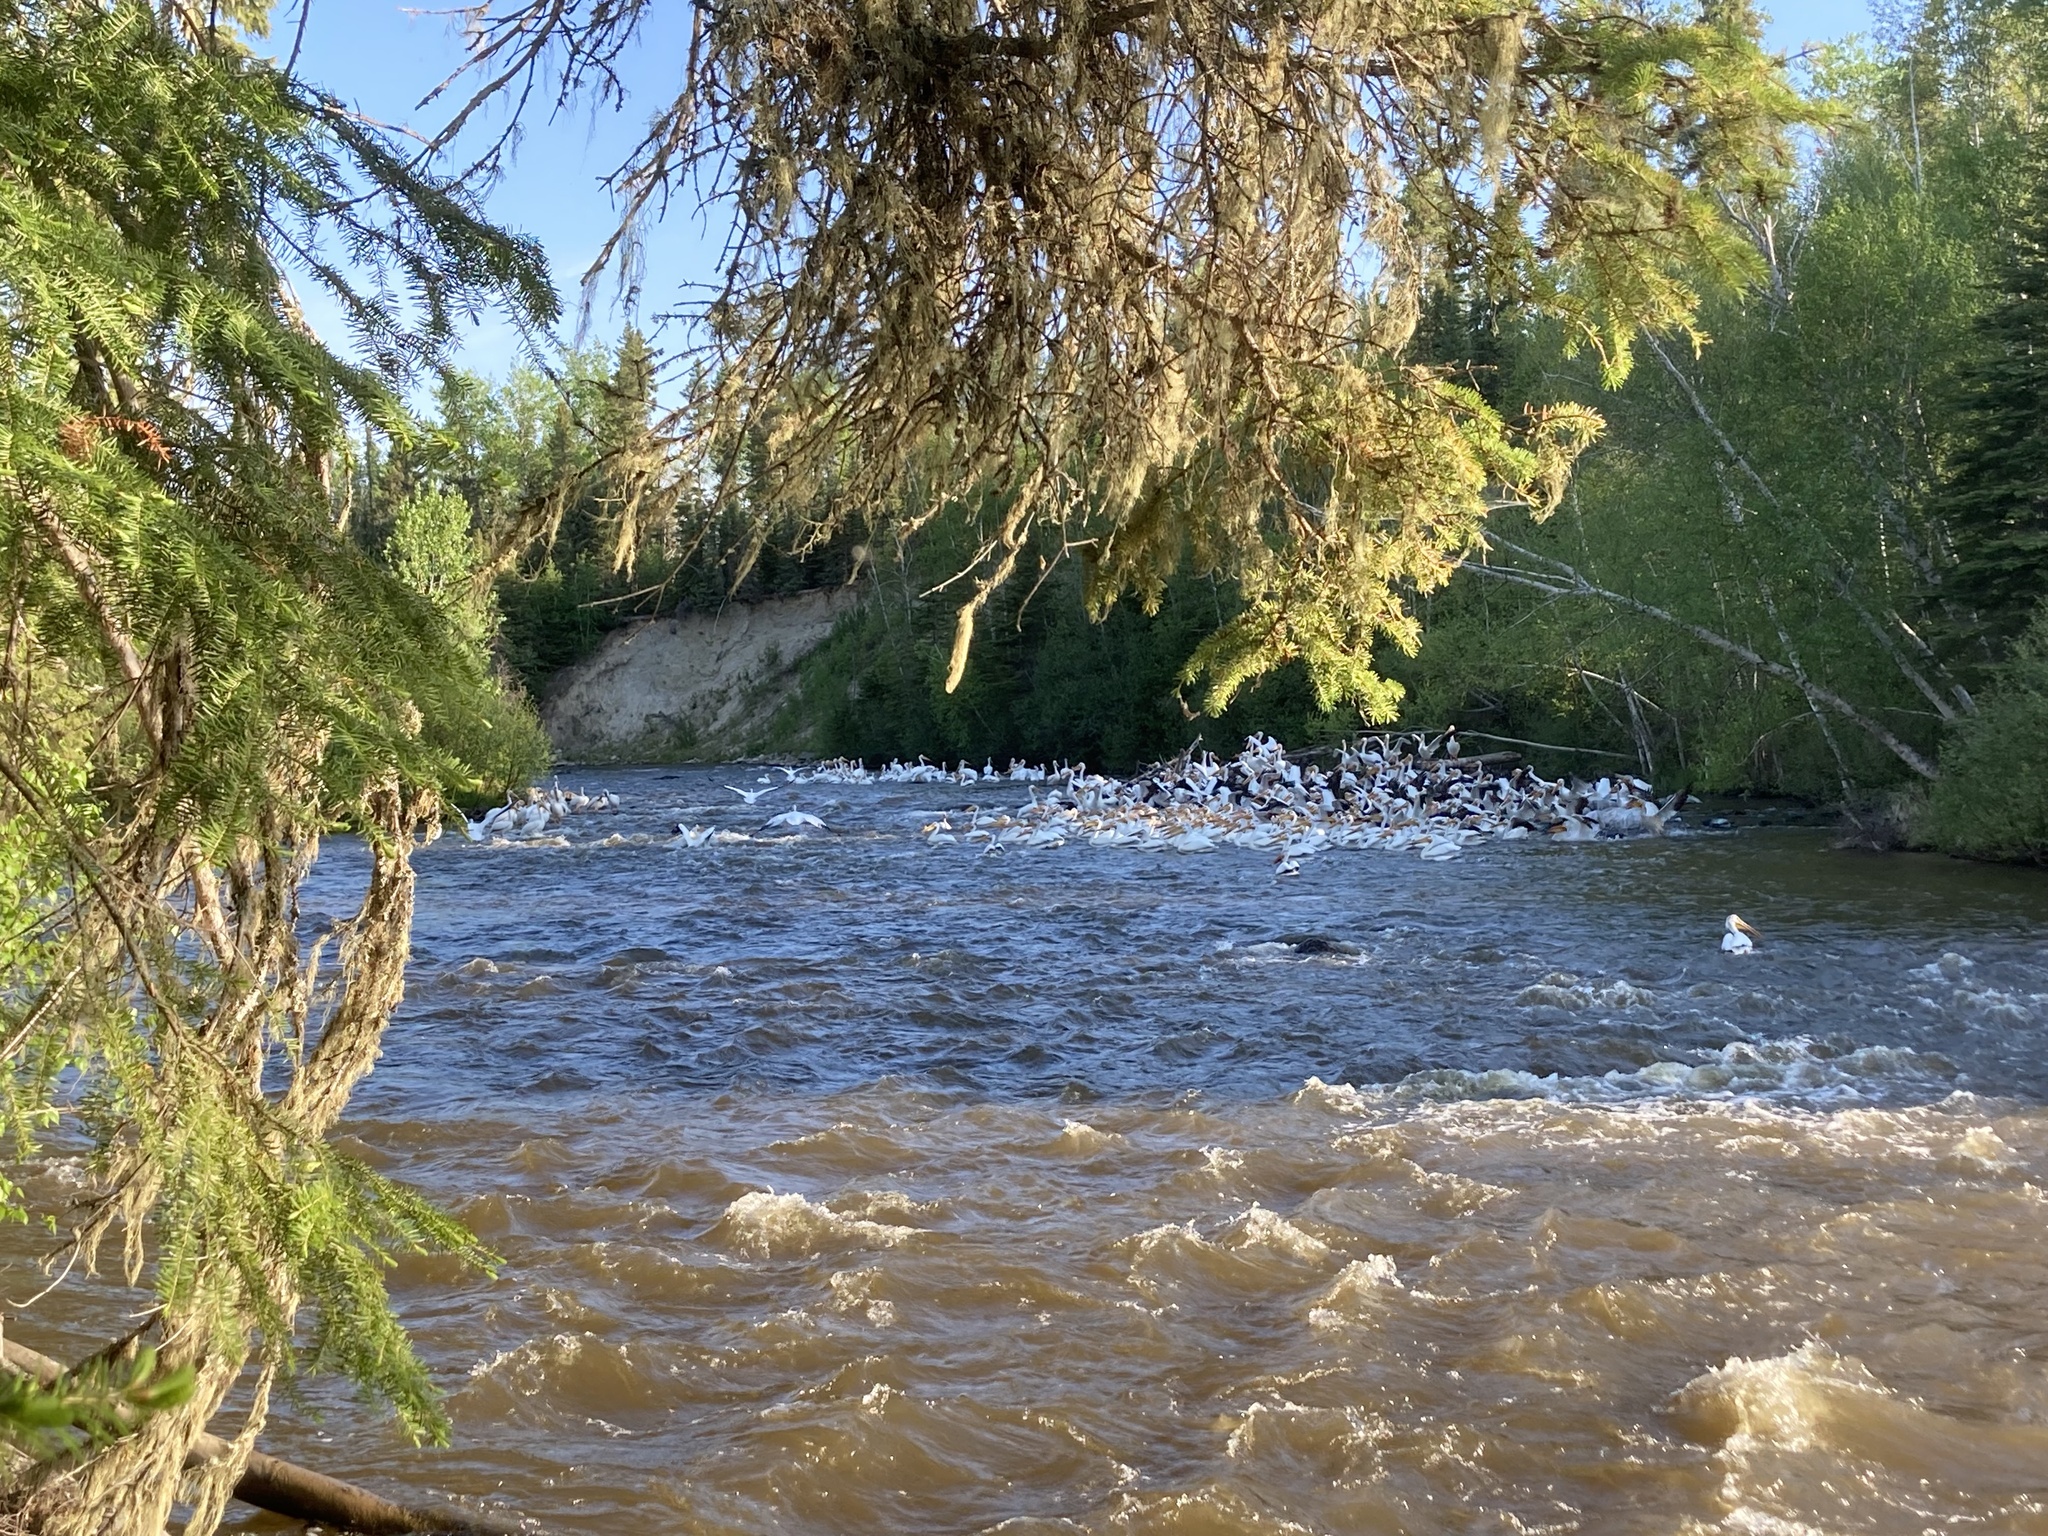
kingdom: Animalia
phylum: Chordata
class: Aves
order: Pelecaniformes
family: Pelecanidae
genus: Pelecanus
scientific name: Pelecanus erythrorhynchos
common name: American white pelican
